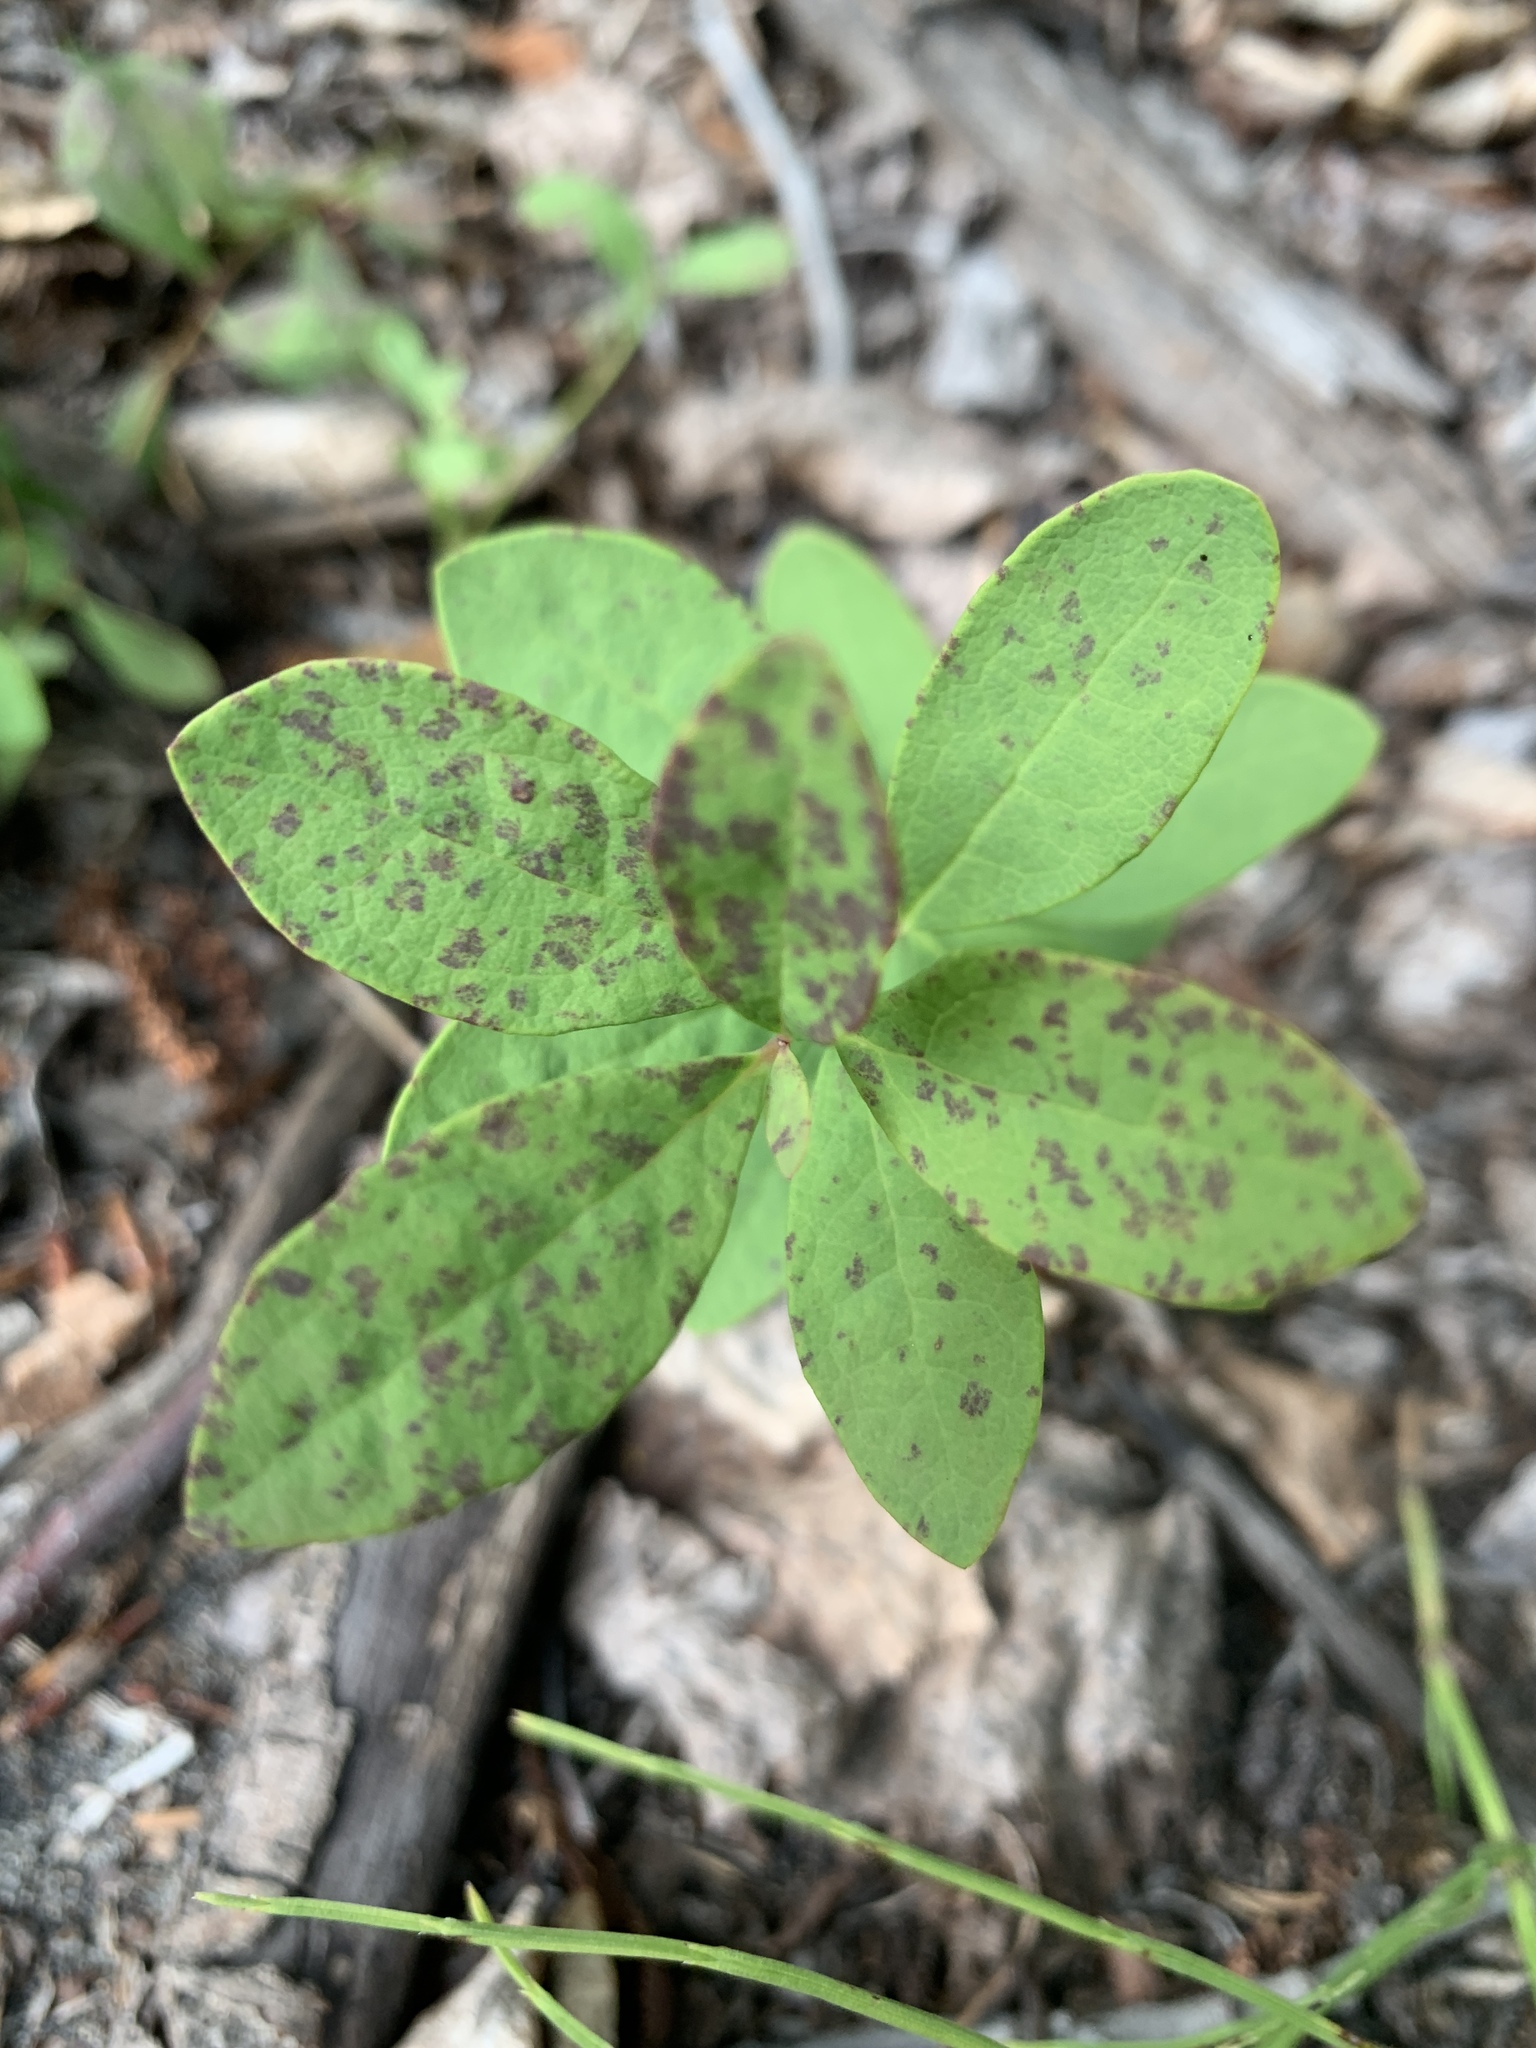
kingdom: Plantae
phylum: Tracheophyta
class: Magnoliopsida
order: Santalales
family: Comandraceae
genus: Geocaulon
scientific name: Geocaulon lividum
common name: Earthberry
